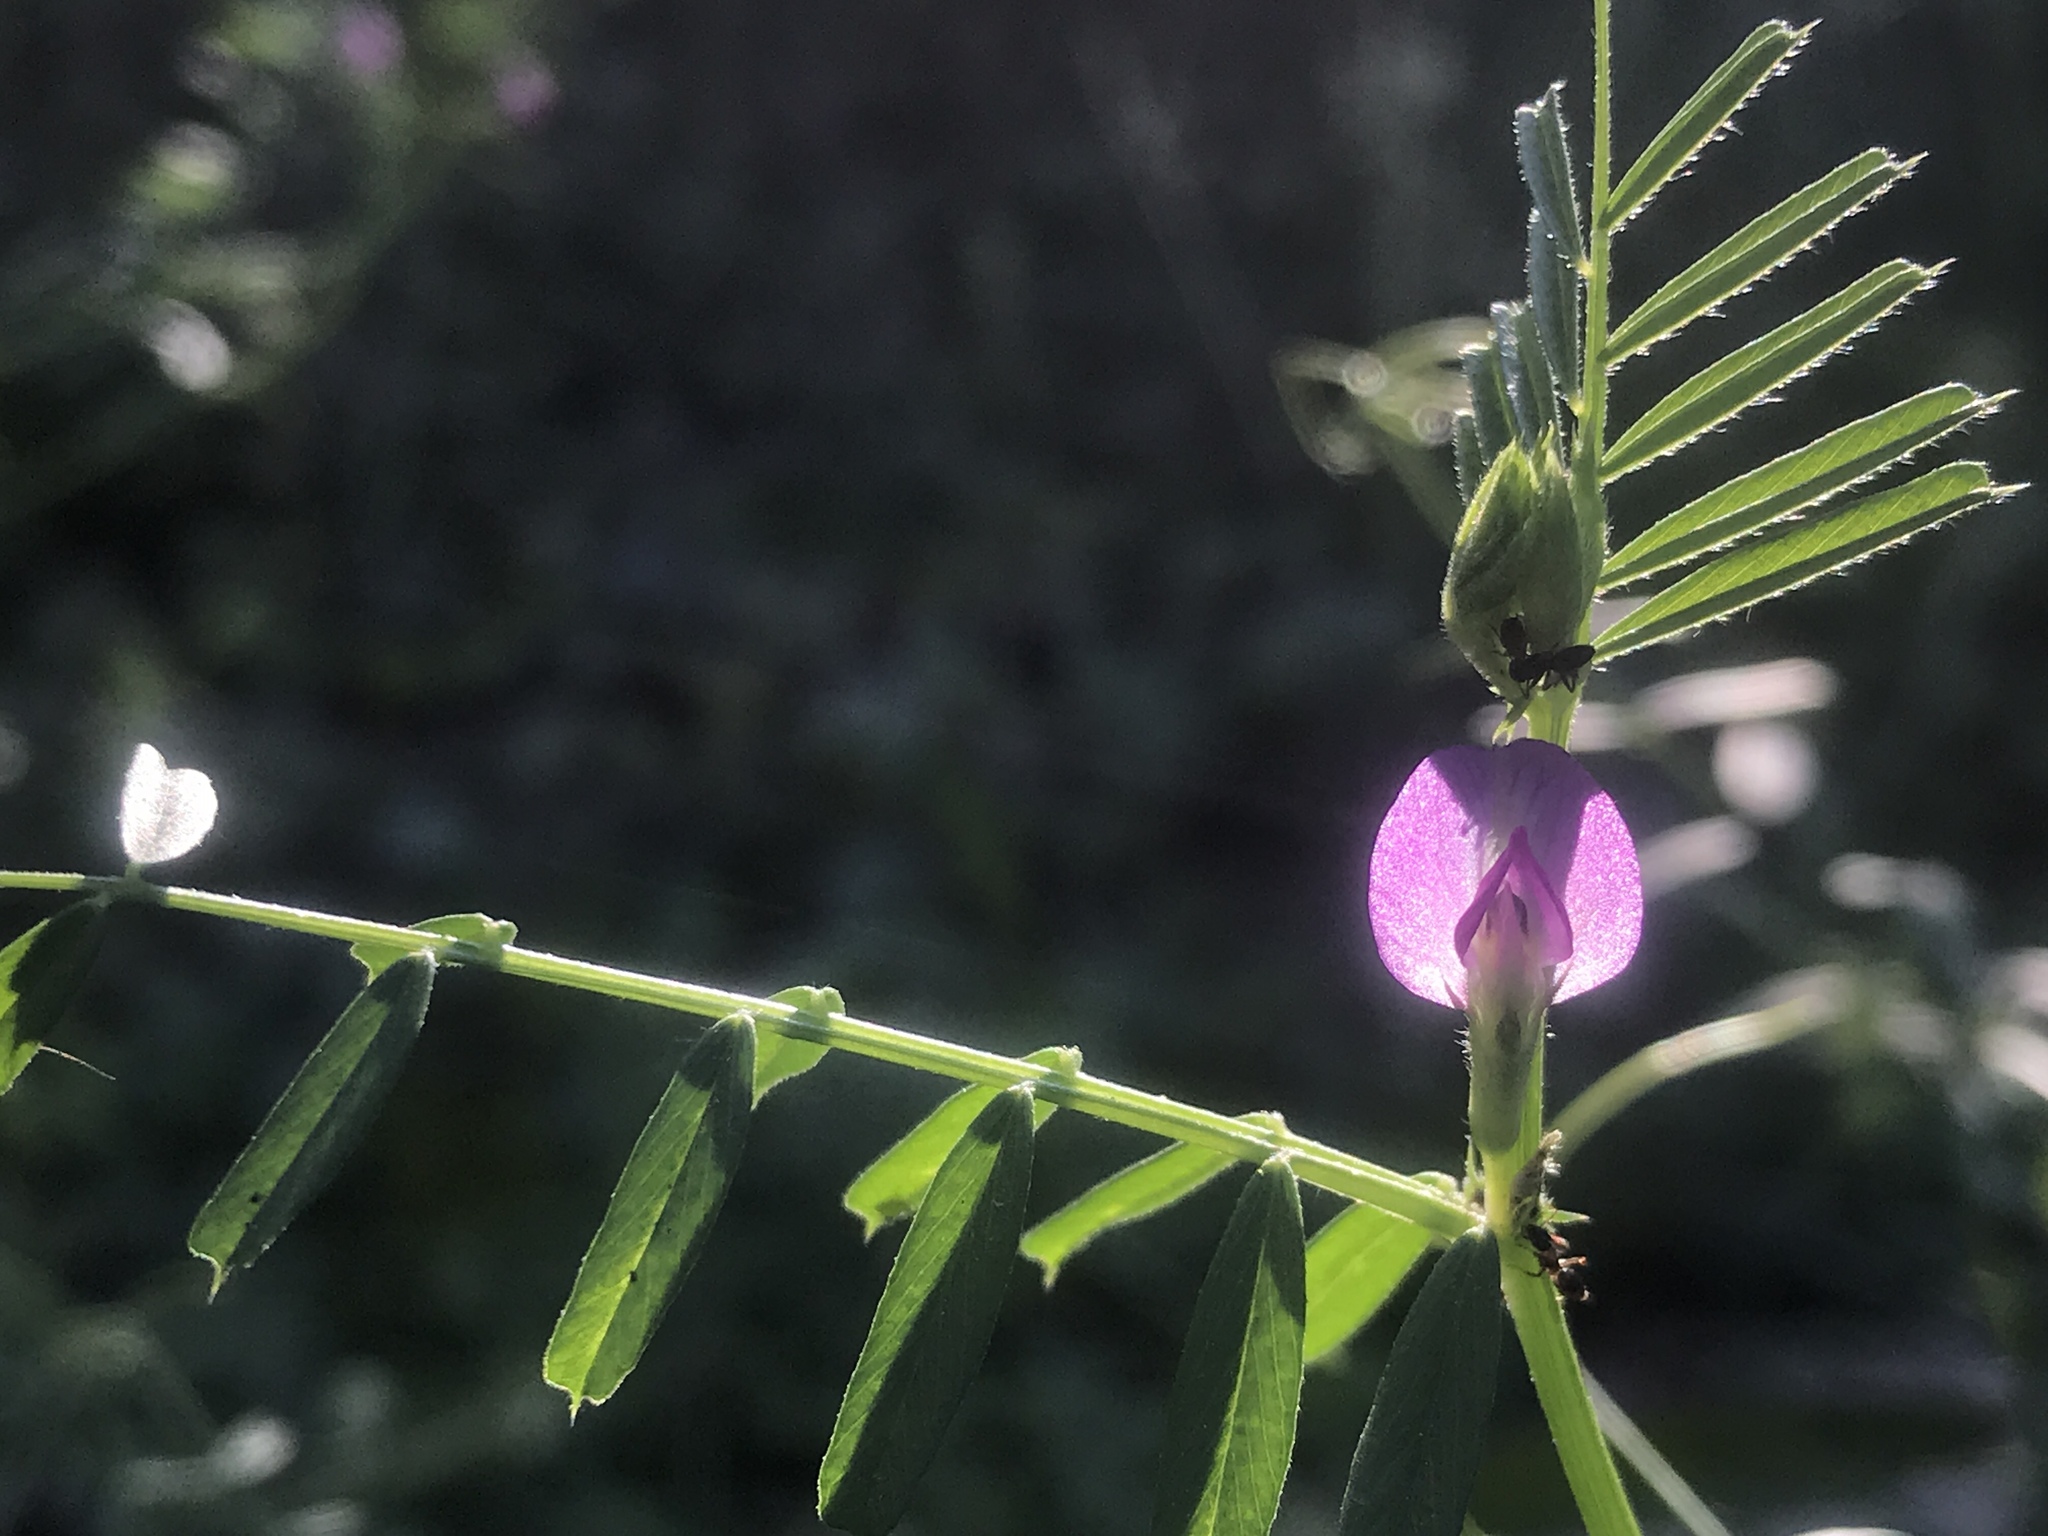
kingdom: Plantae
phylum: Tracheophyta
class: Magnoliopsida
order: Fabales
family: Fabaceae
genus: Vicia
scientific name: Vicia sativa
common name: Garden vetch
